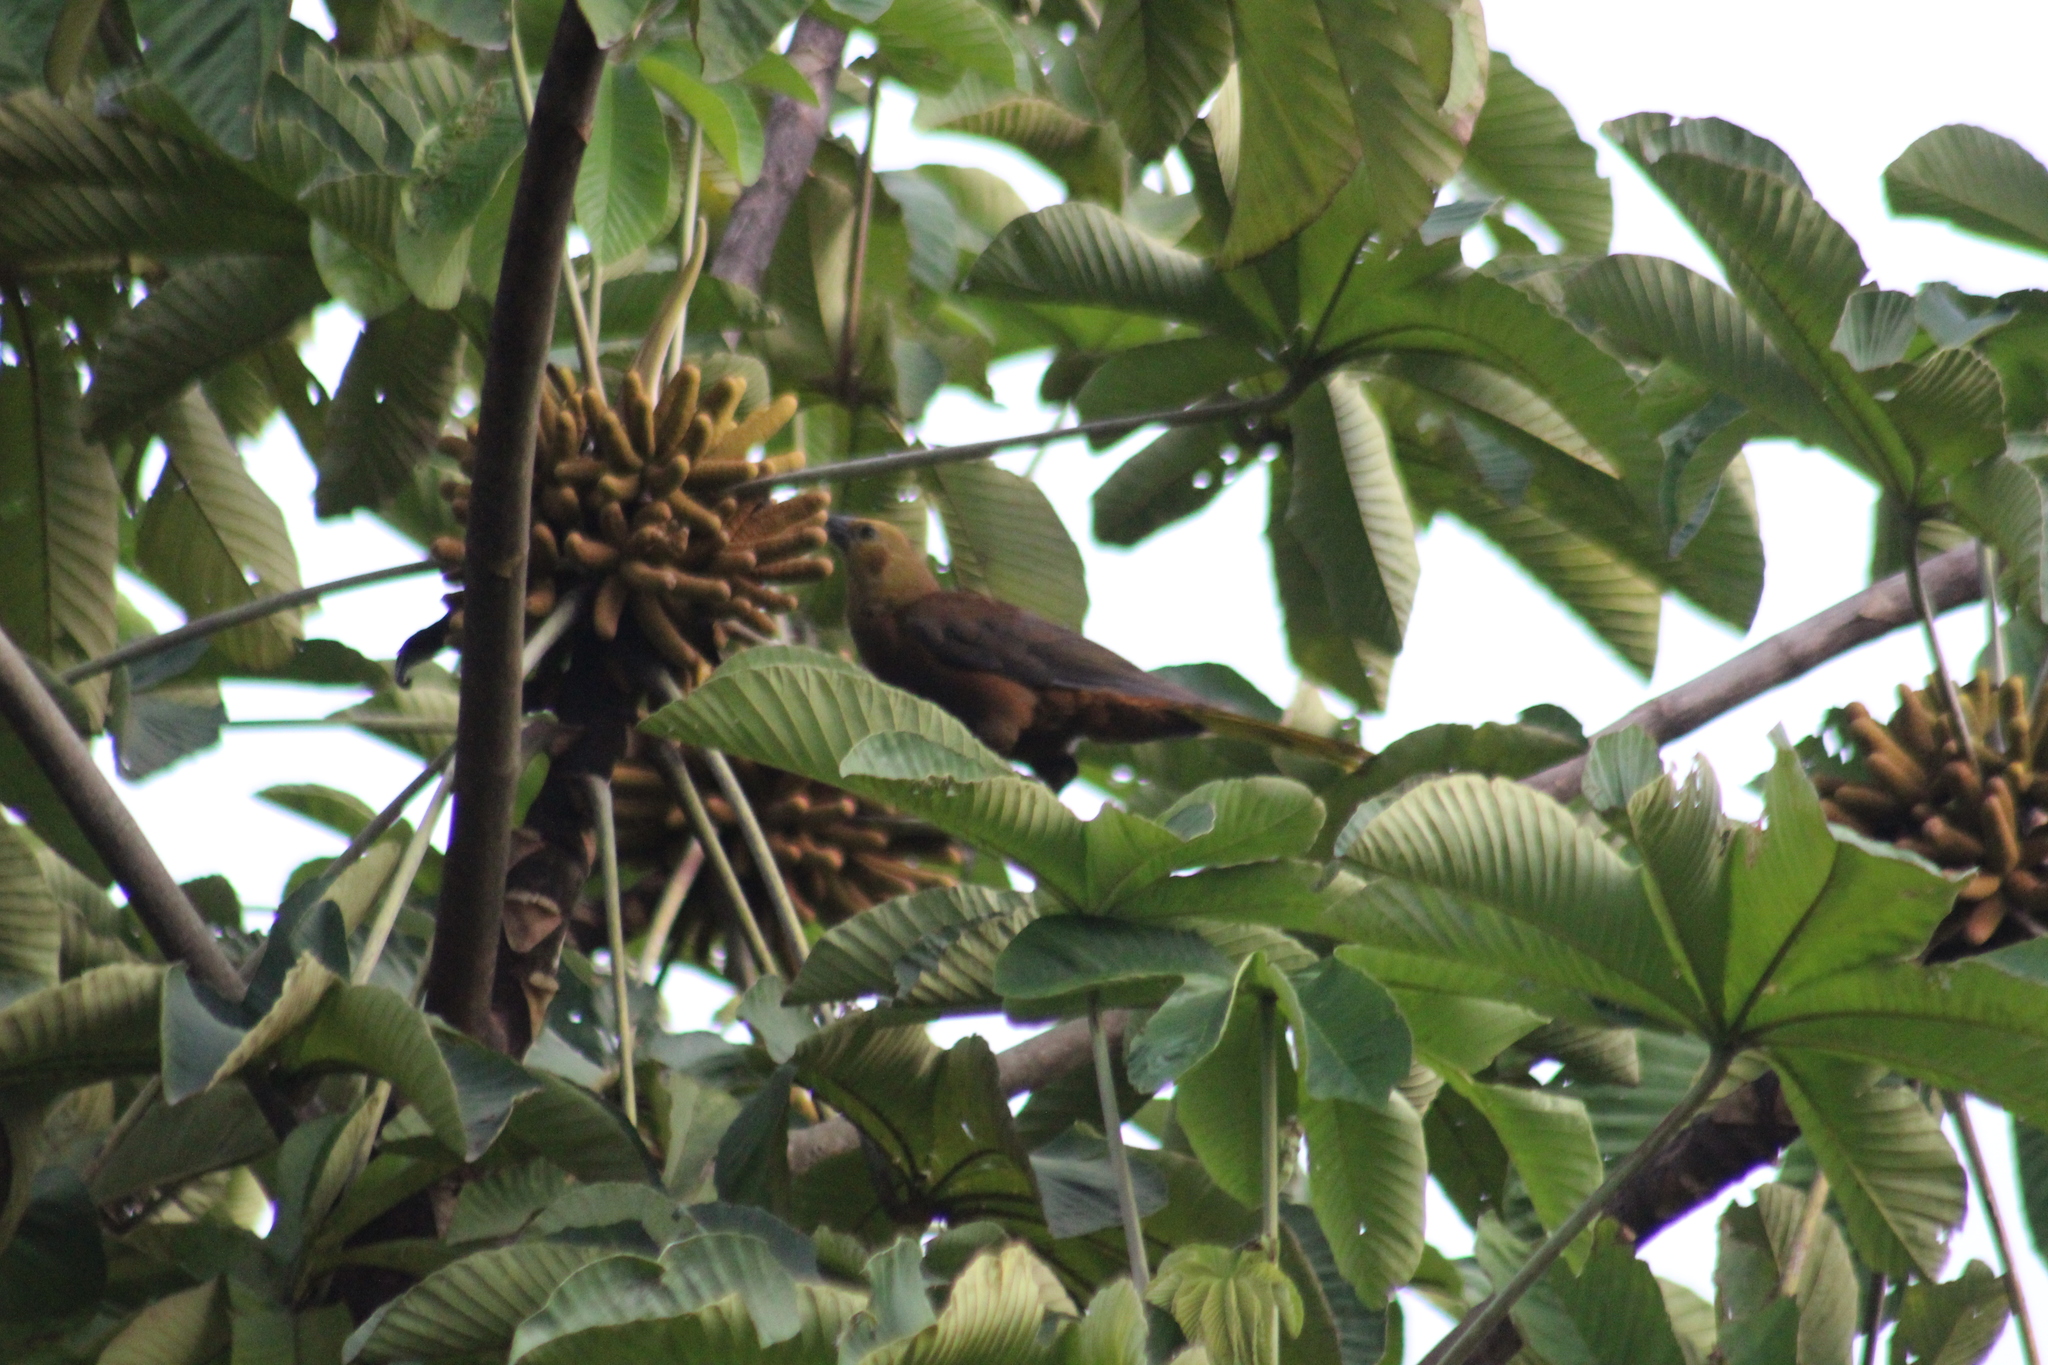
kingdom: Animalia
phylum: Chordata
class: Aves
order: Passeriformes
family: Icteridae
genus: Psarocolius
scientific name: Psarocolius angustifrons
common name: Russet-backed oropendola
